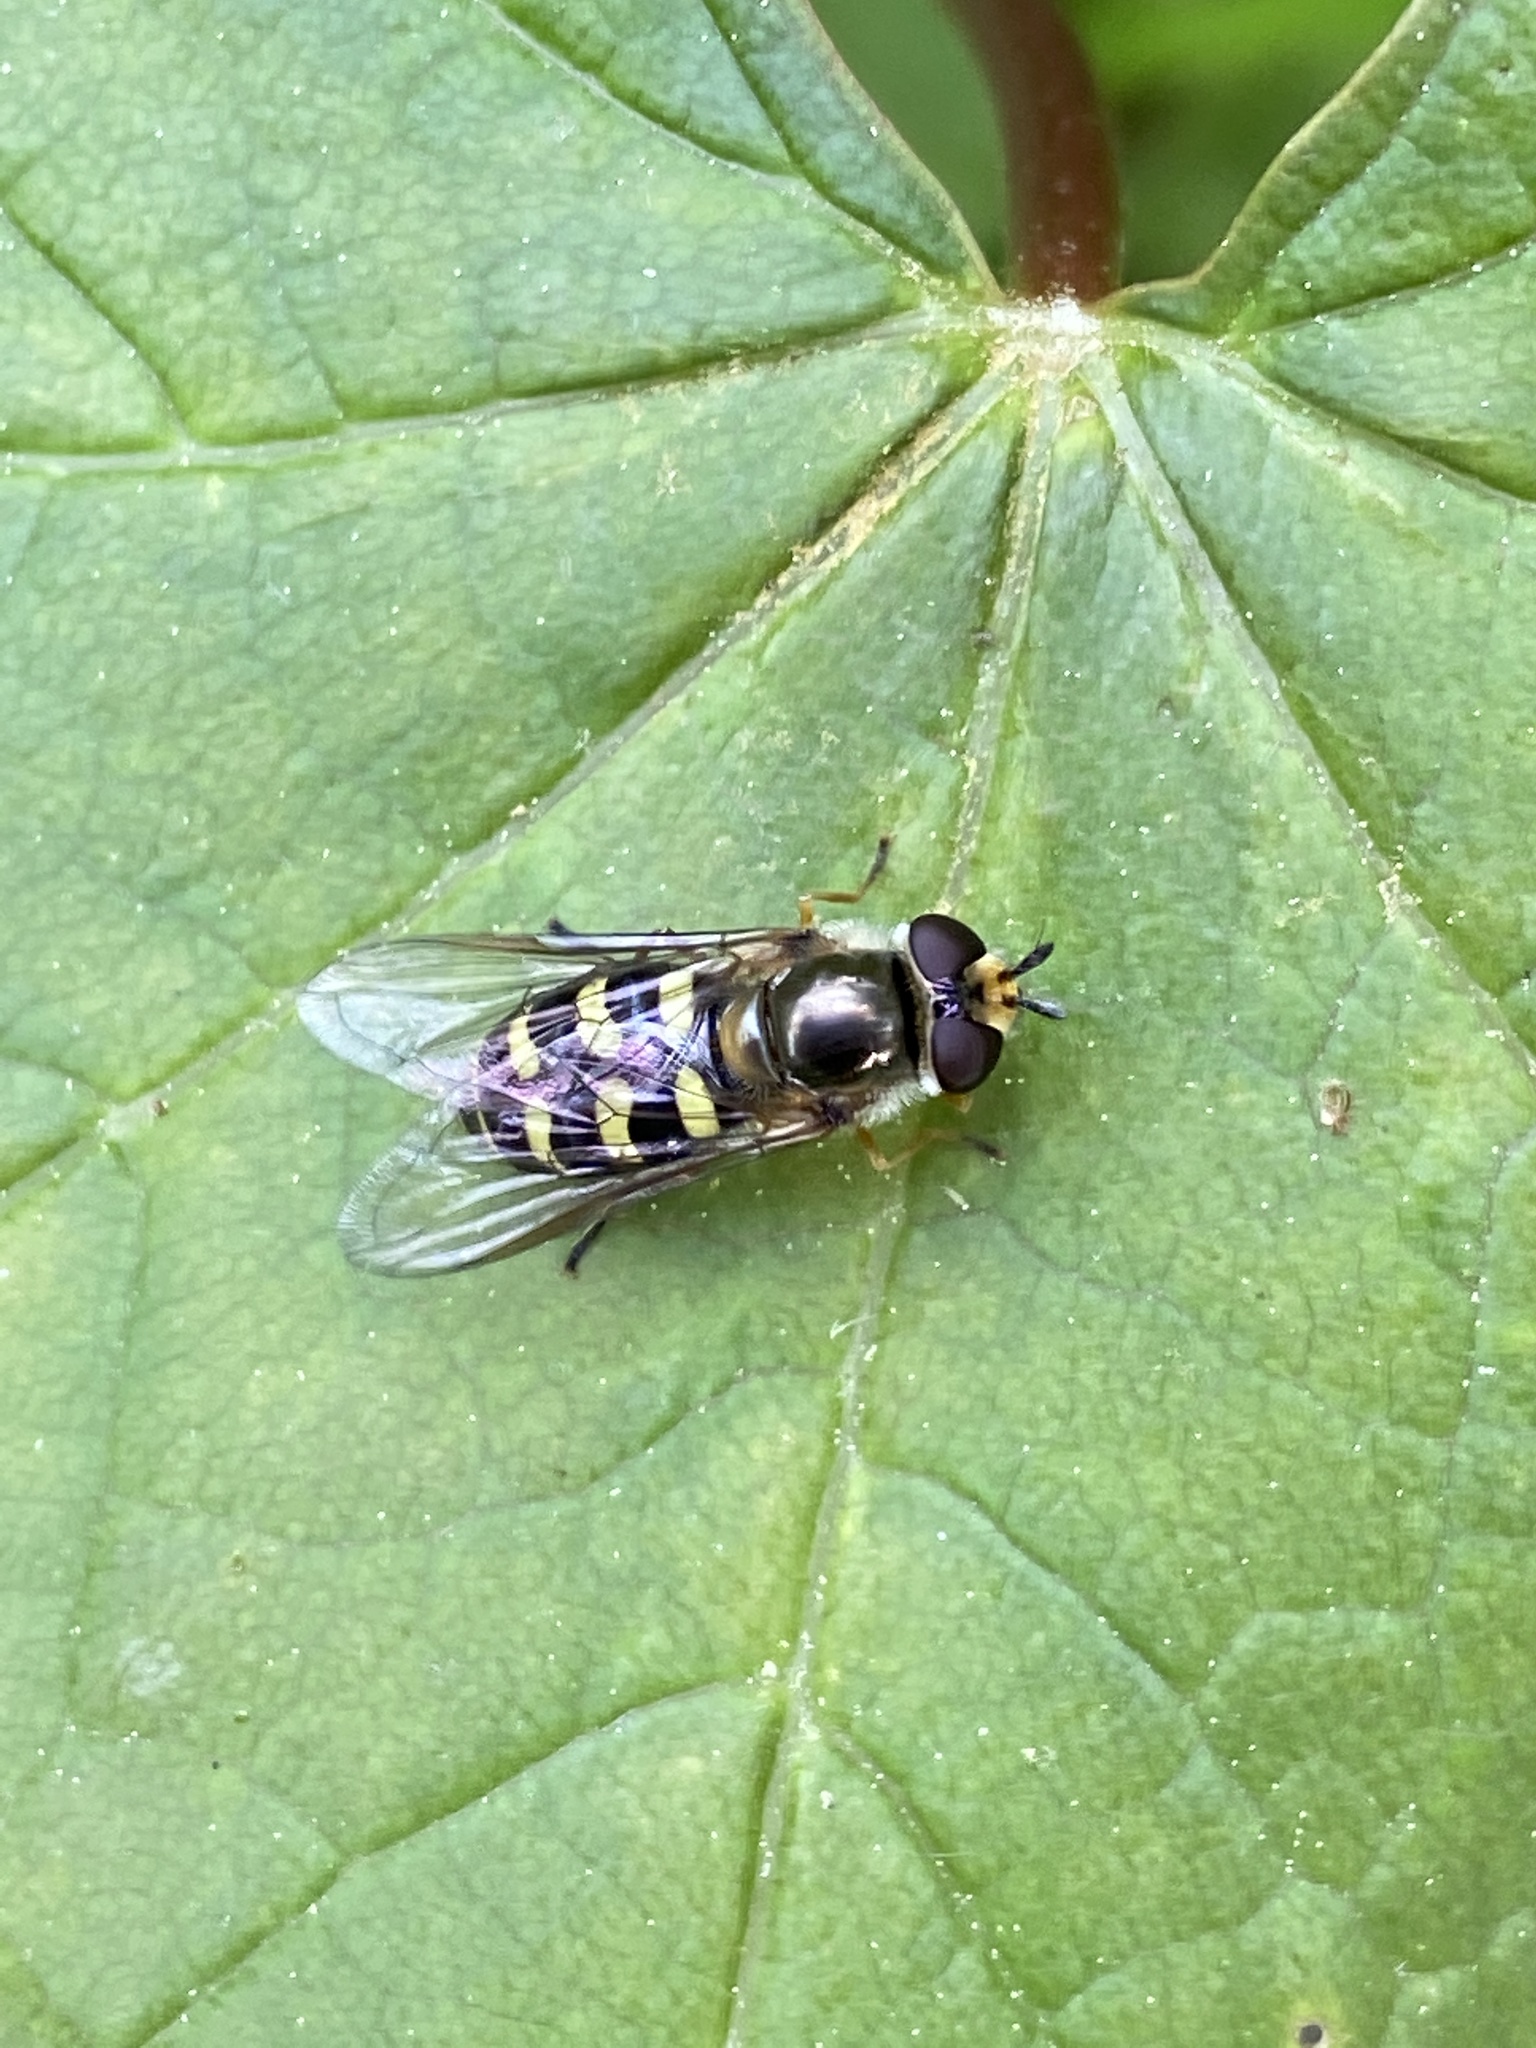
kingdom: Animalia
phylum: Arthropoda
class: Insecta
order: Diptera
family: Syrphidae
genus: Eupeodes
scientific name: Eupeodes luniger
